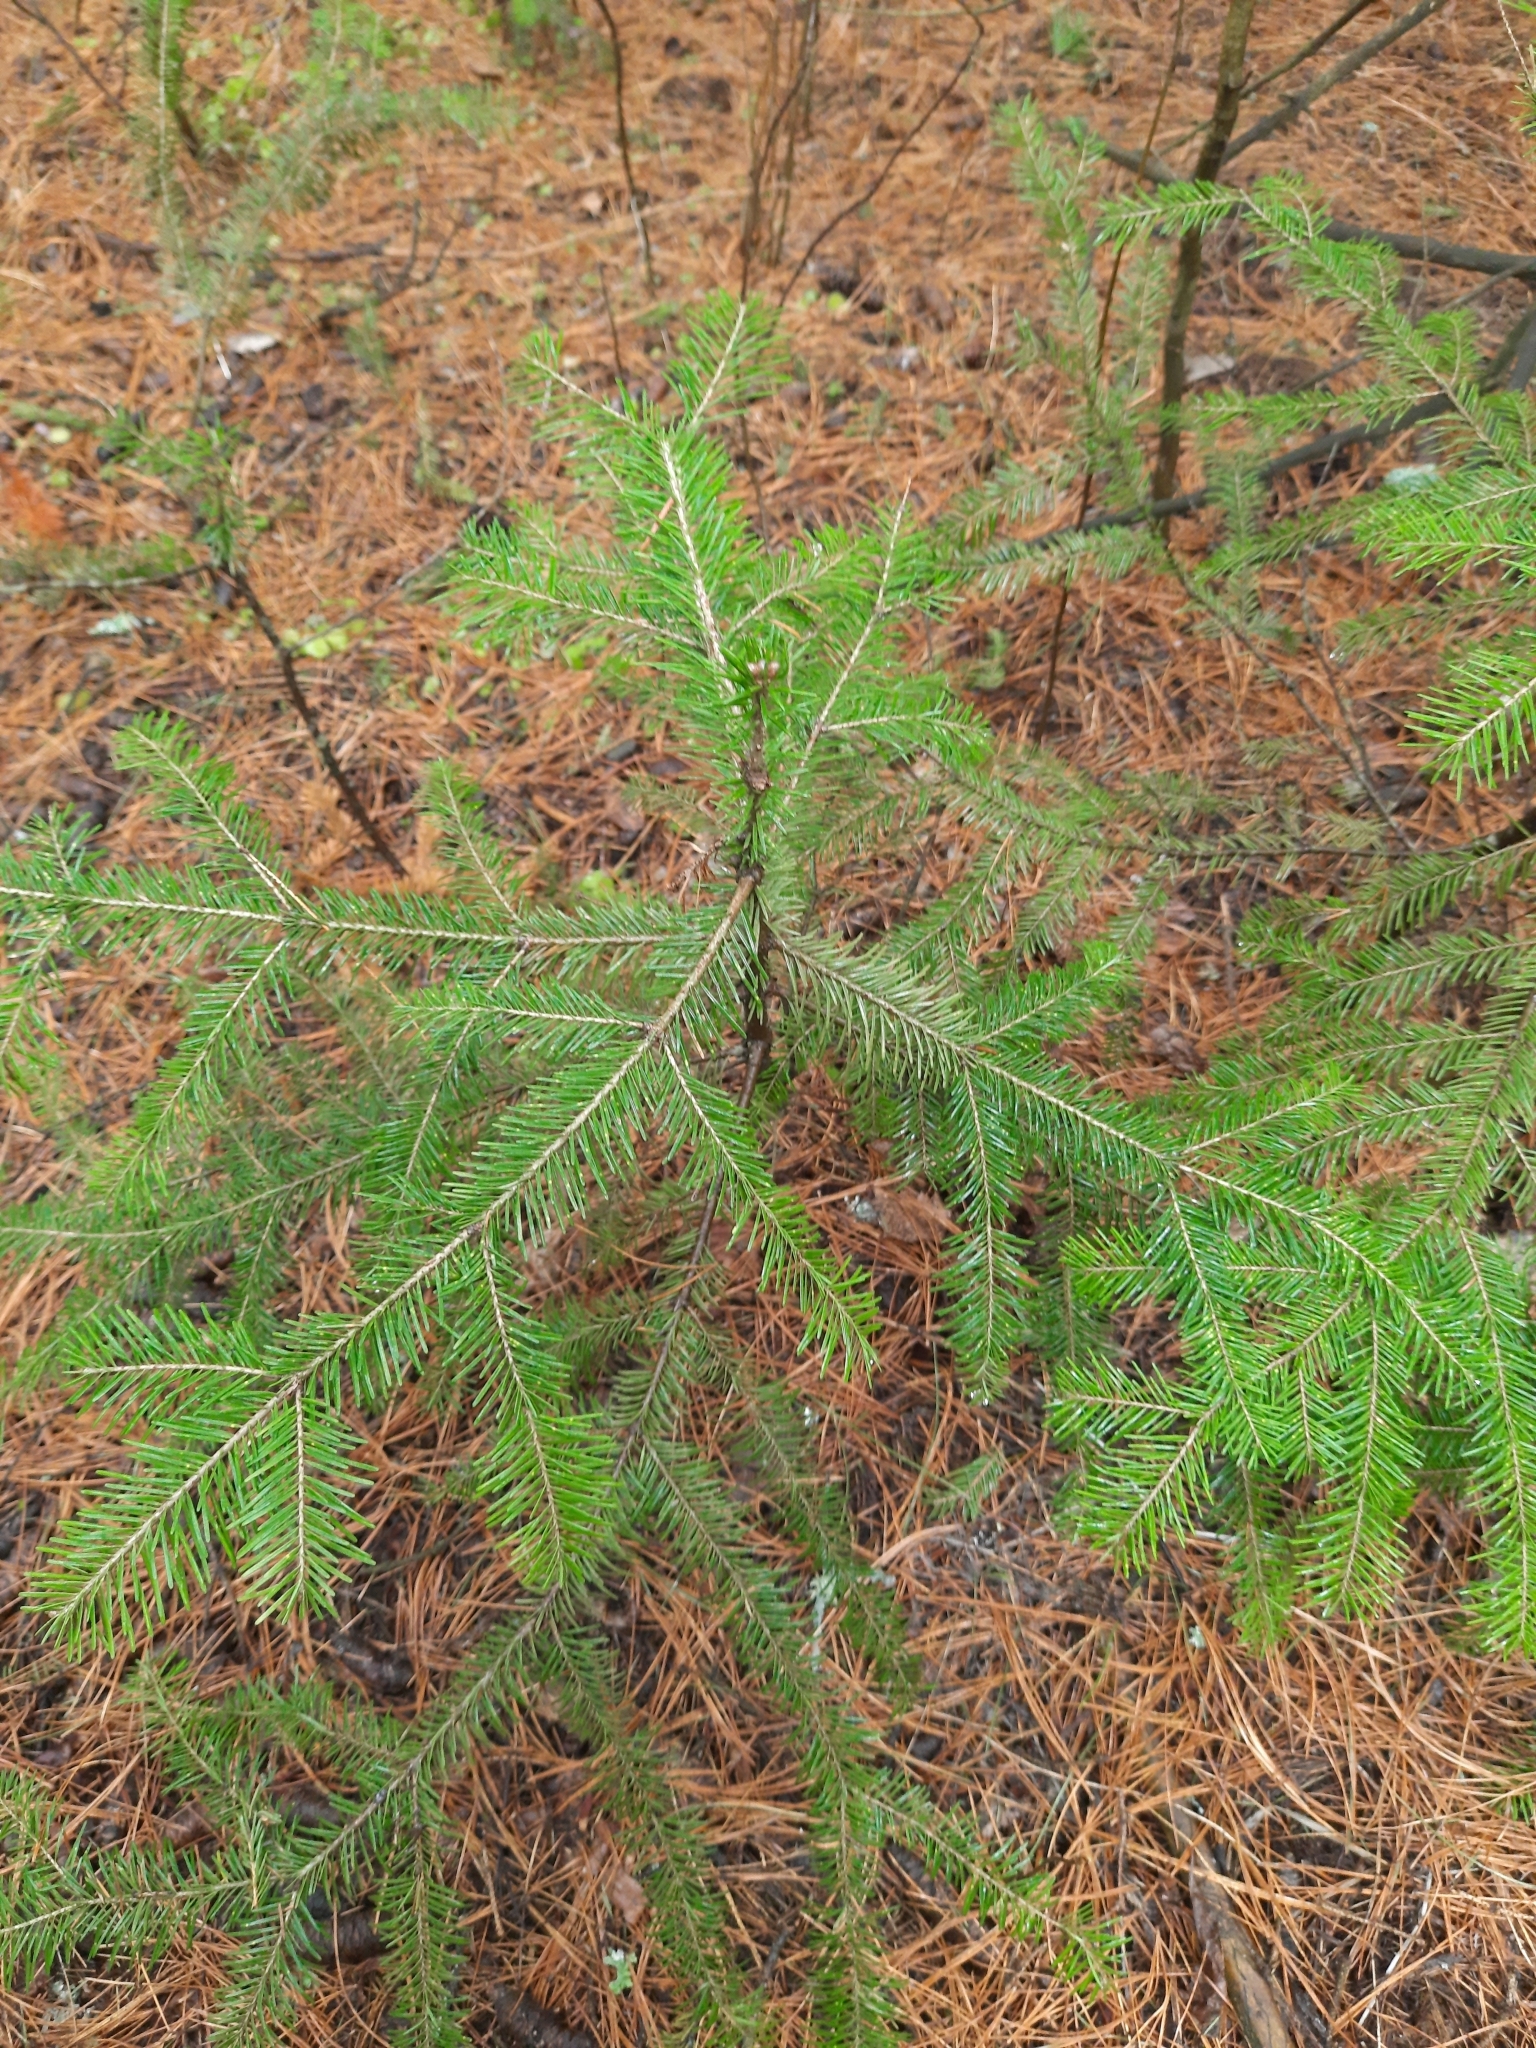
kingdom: Plantae
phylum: Tracheophyta
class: Pinopsida
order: Pinales
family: Pinaceae
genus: Abies
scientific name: Abies sibirica
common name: Siberian fir
